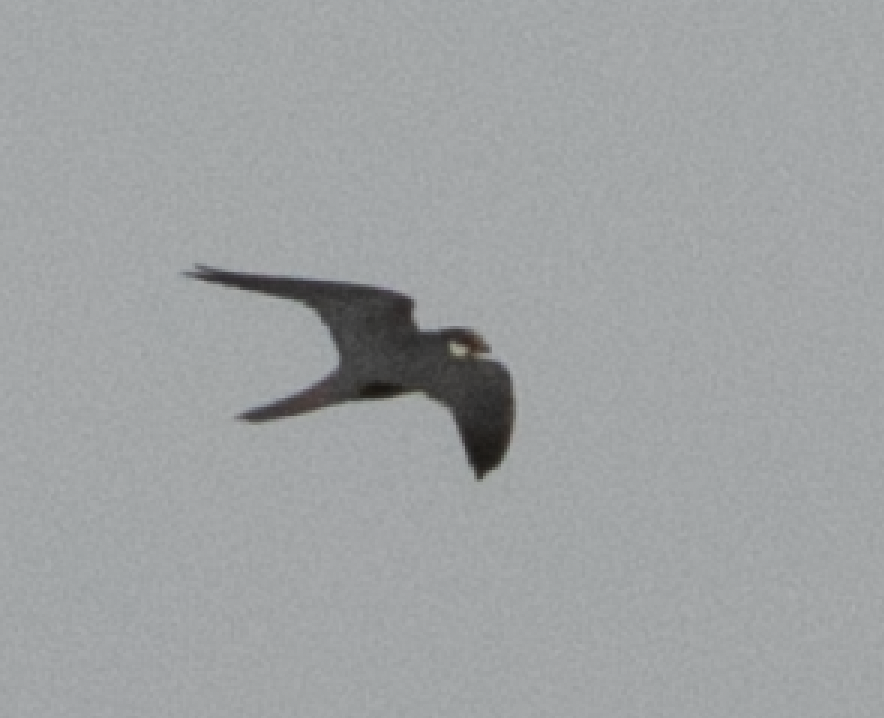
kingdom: Animalia
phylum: Chordata
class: Aves
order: Falconiformes
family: Falconidae
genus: Falco
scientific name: Falco subbuteo
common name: Eurasian hobby
